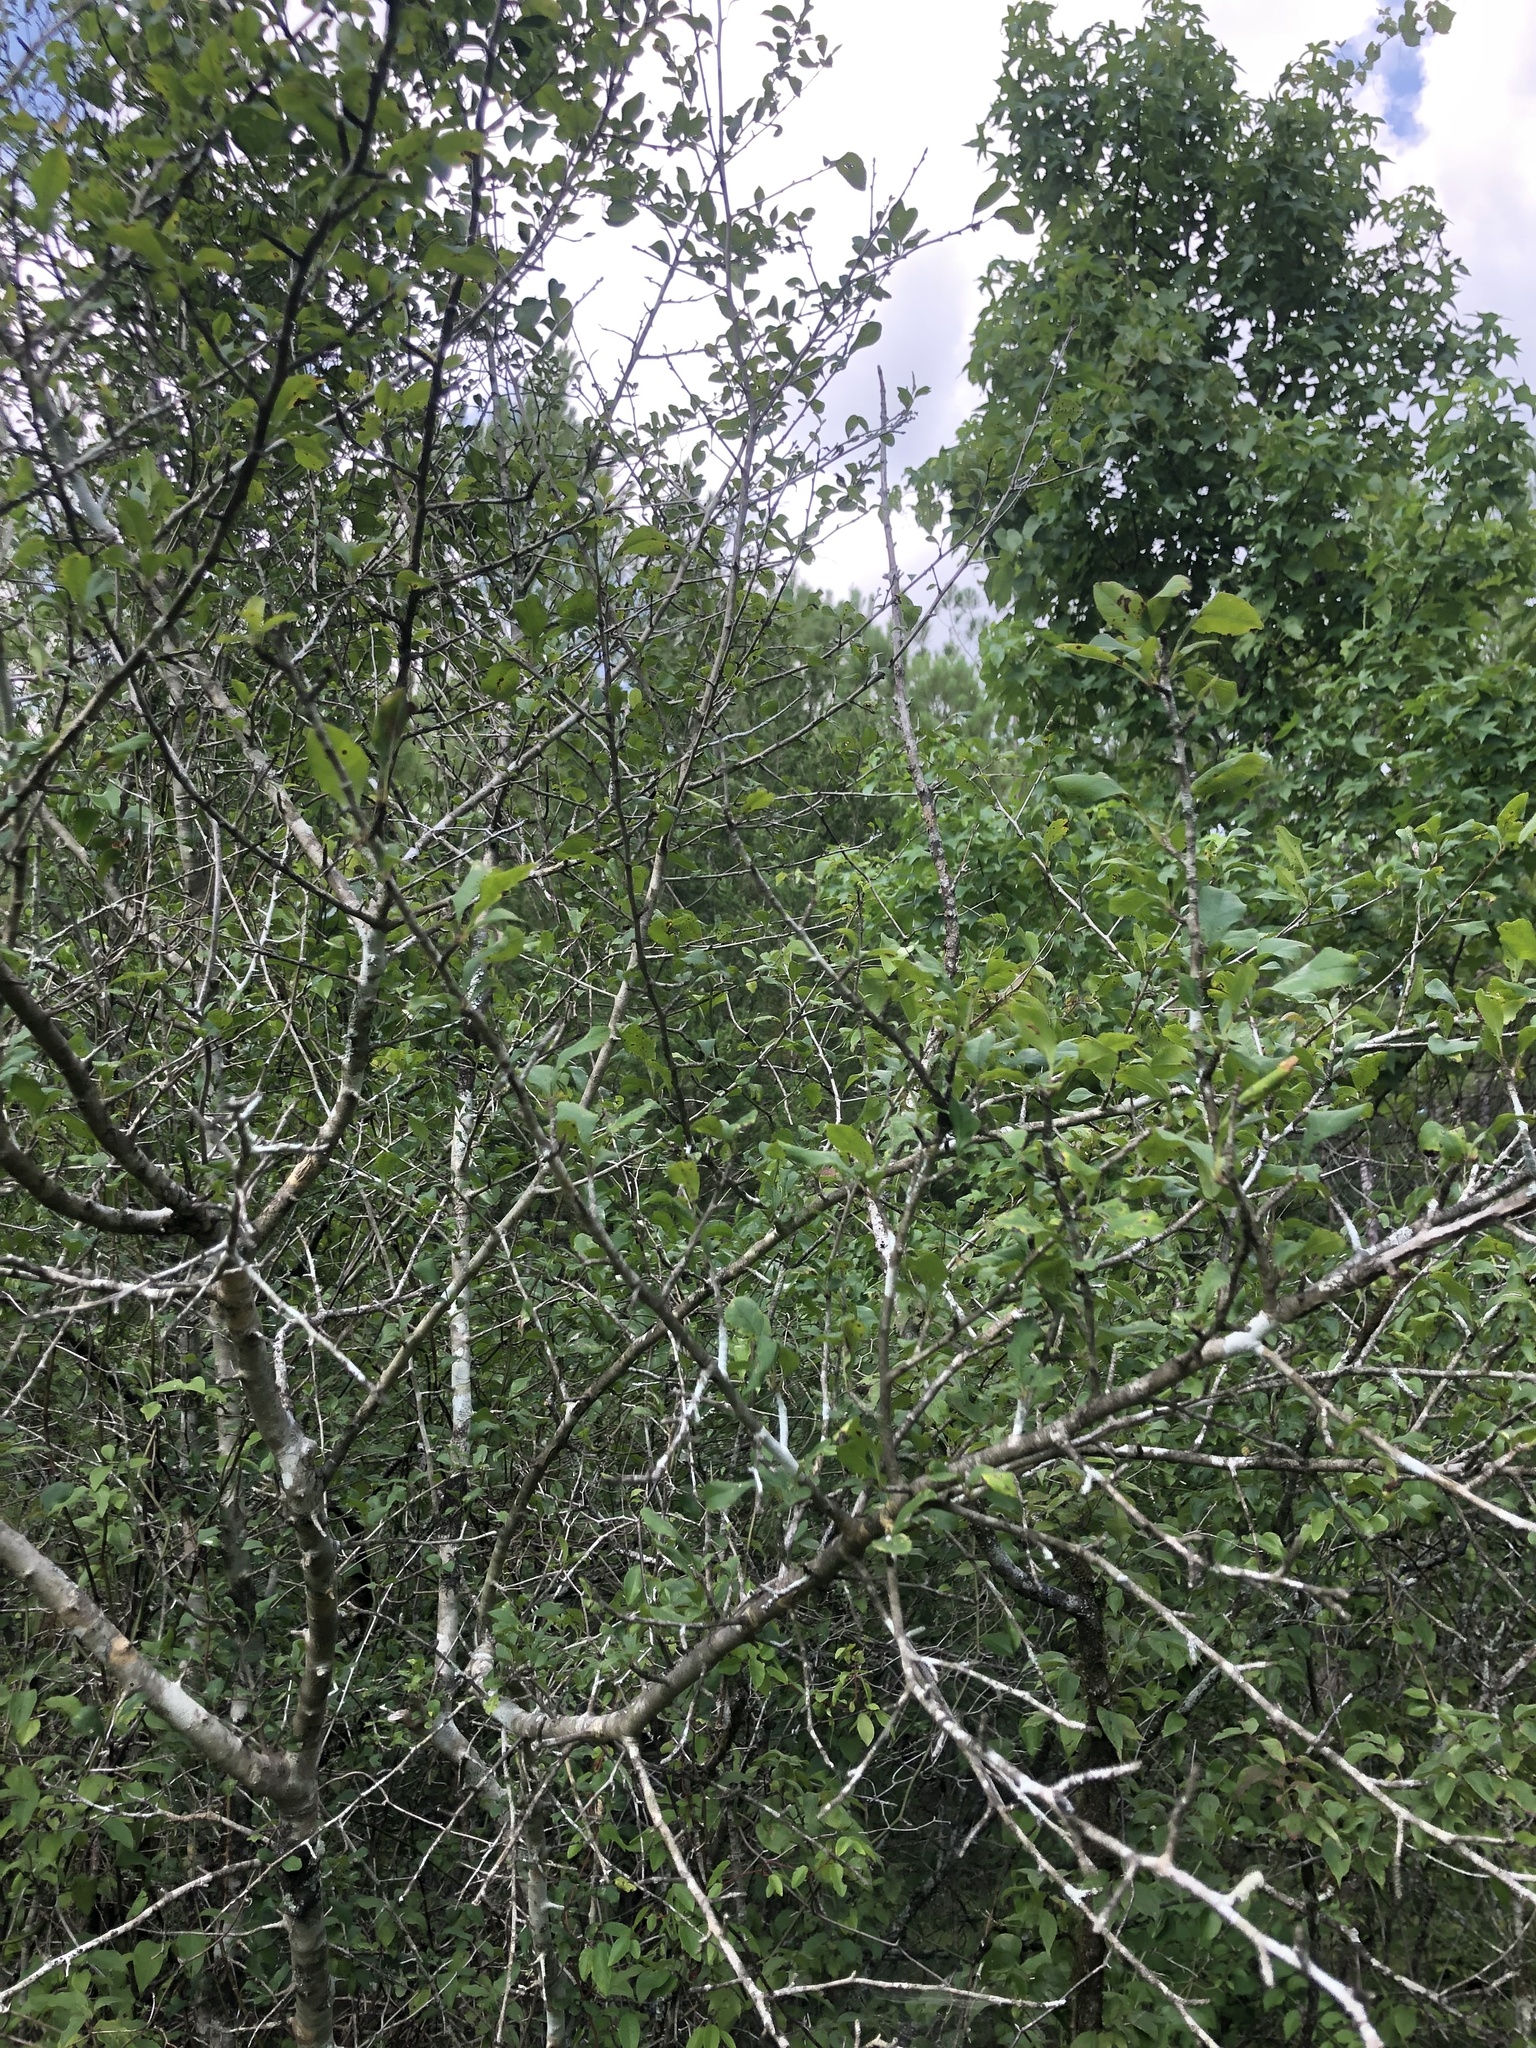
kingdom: Plantae
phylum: Tracheophyta
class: Magnoliopsida
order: Aquifoliales
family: Aquifoliaceae
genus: Ilex
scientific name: Ilex decidua
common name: Possum-haw
